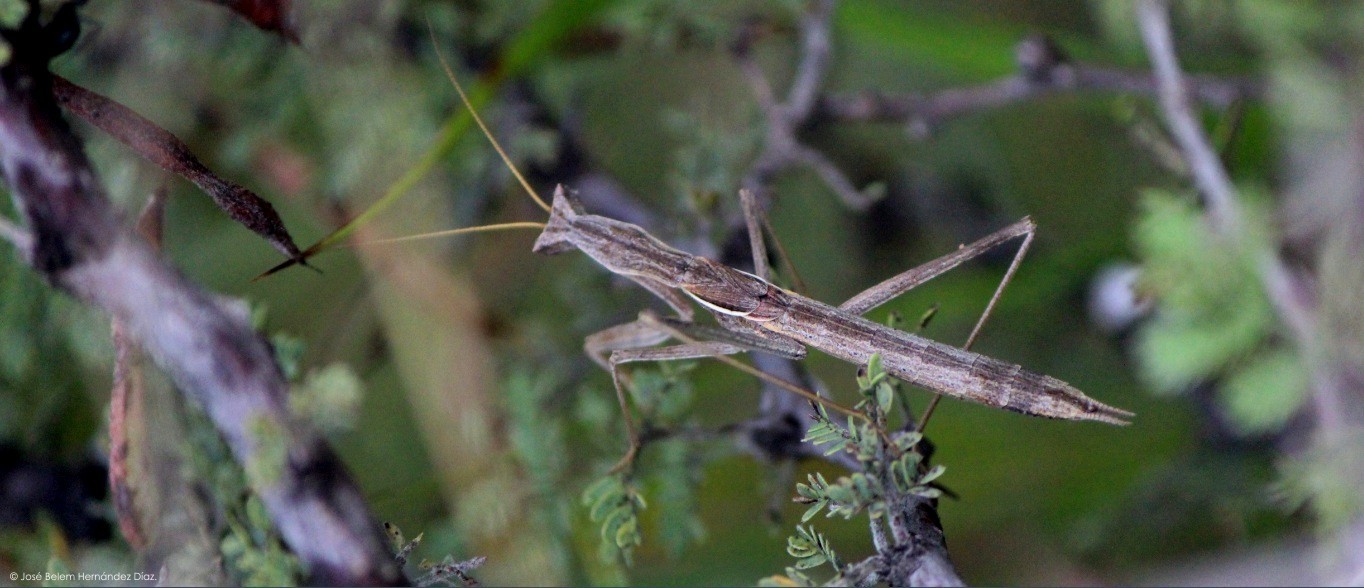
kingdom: Animalia
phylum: Arthropoda
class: Insecta
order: Mantodea
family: Amelidae
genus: Yersinia
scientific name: Yersinia mexicana
